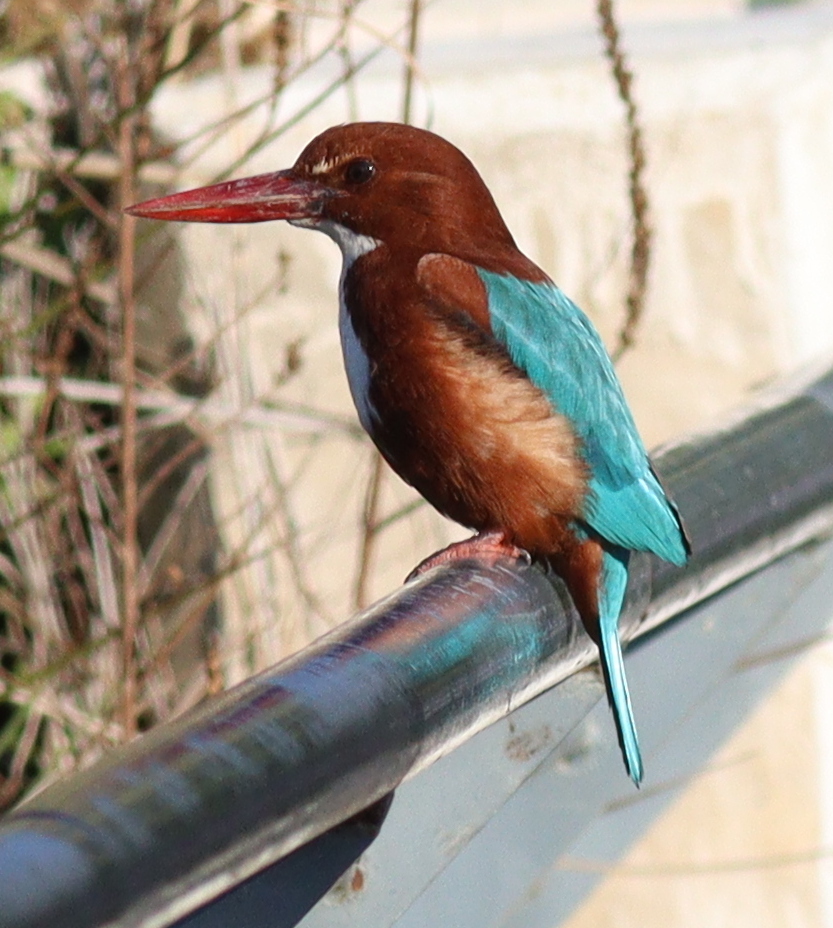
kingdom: Animalia
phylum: Chordata
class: Aves
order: Coraciiformes
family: Alcedinidae
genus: Halcyon
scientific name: Halcyon smyrnensis
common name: White-throated kingfisher
